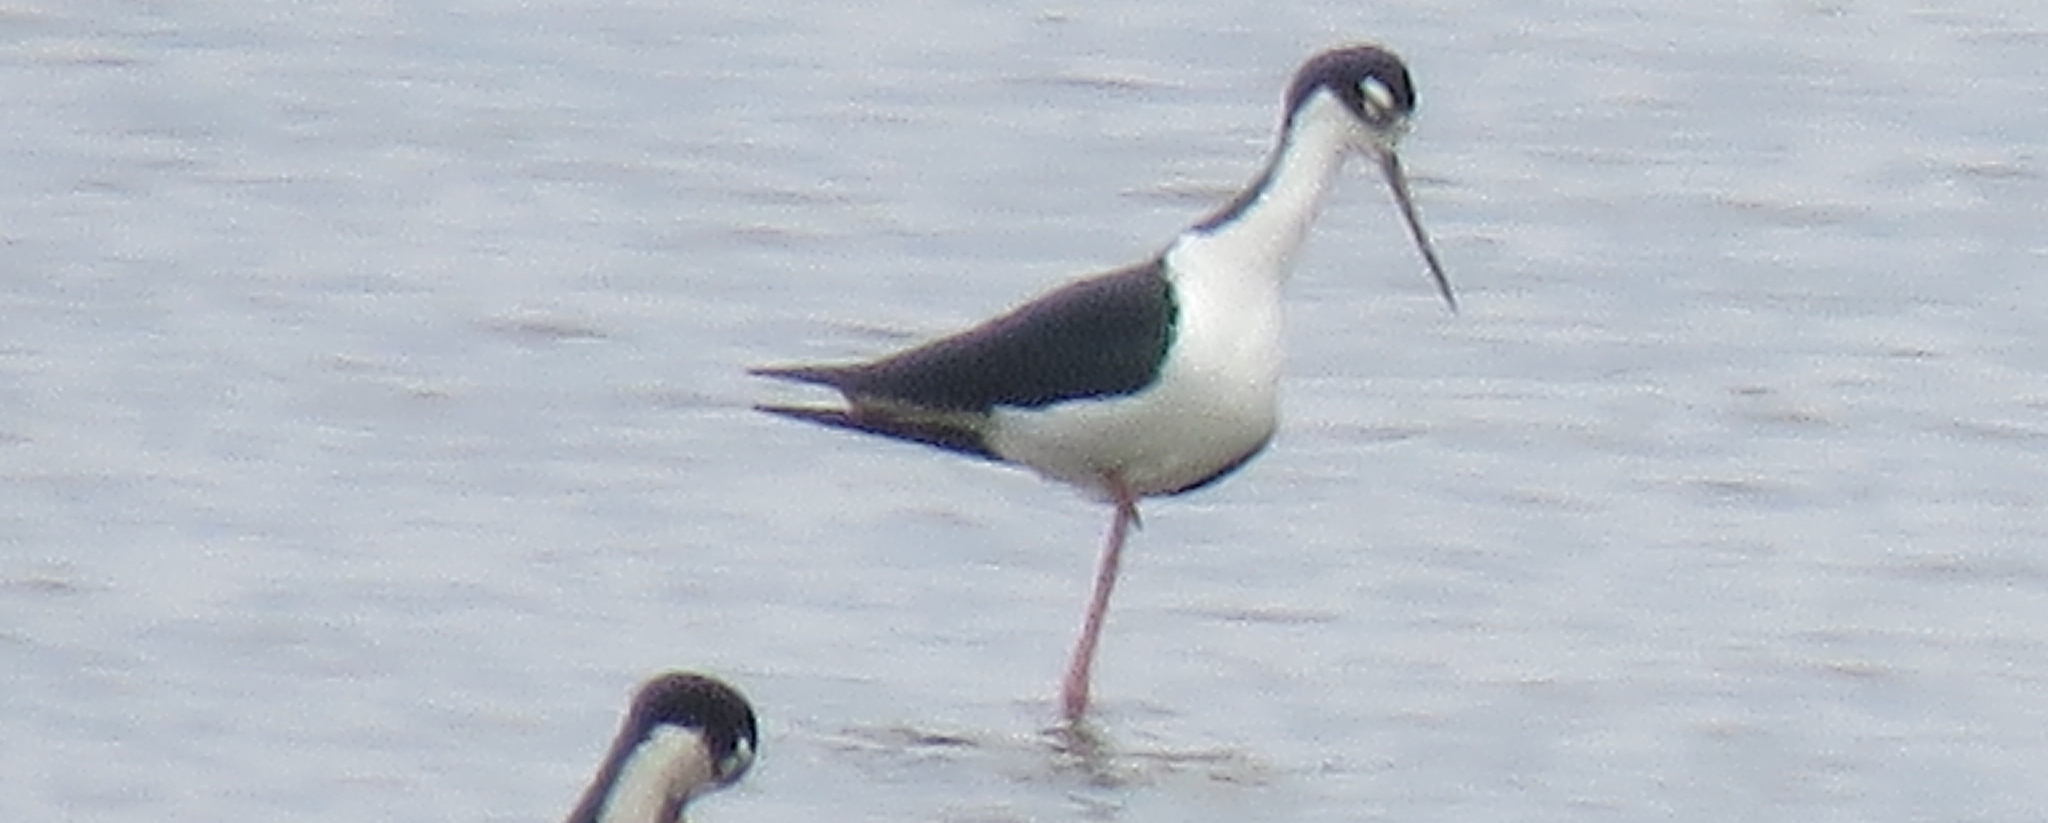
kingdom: Animalia
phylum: Chordata
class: Aves
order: Charadriiformes
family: Recurvirostridae
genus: Himantopus
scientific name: Himantopus mexicanus
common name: Black-necked stilt
